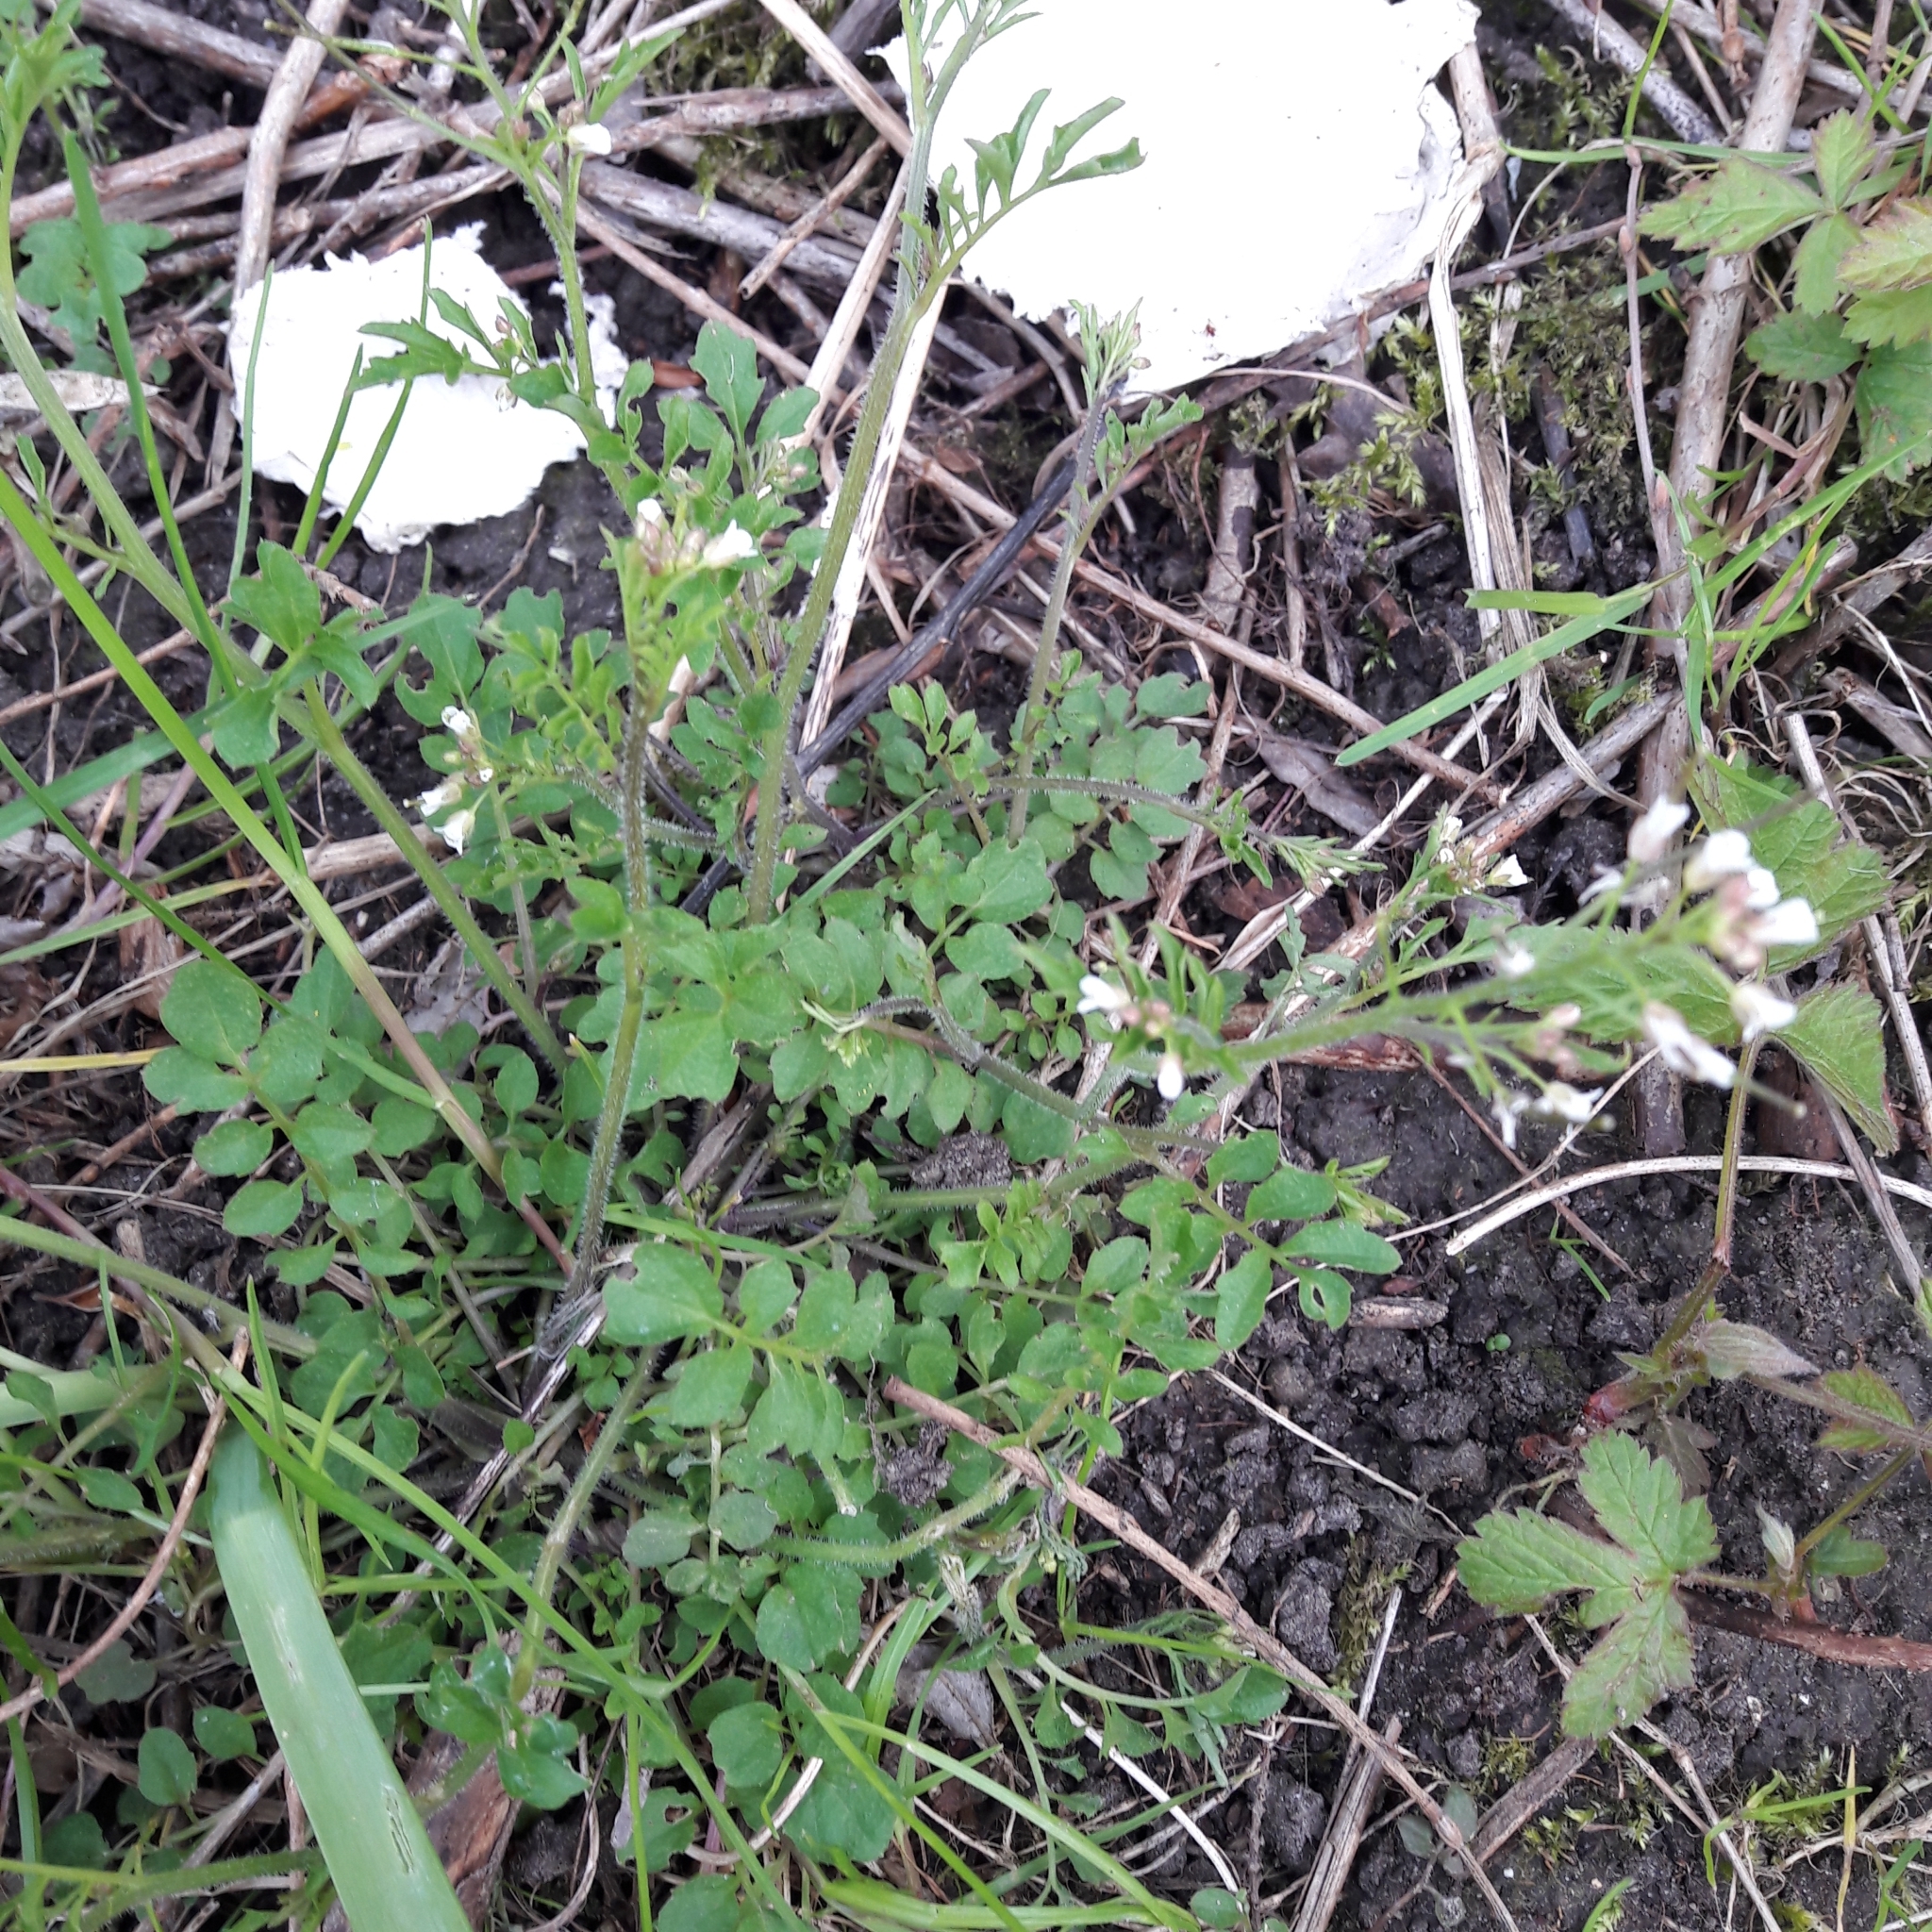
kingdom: Plantae
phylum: Tracheophyta
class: Magnoliopsida
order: Brassicales
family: Brassicaceae
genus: Cardamine
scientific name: Cardamine hirsuta
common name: Hairy bittercress
